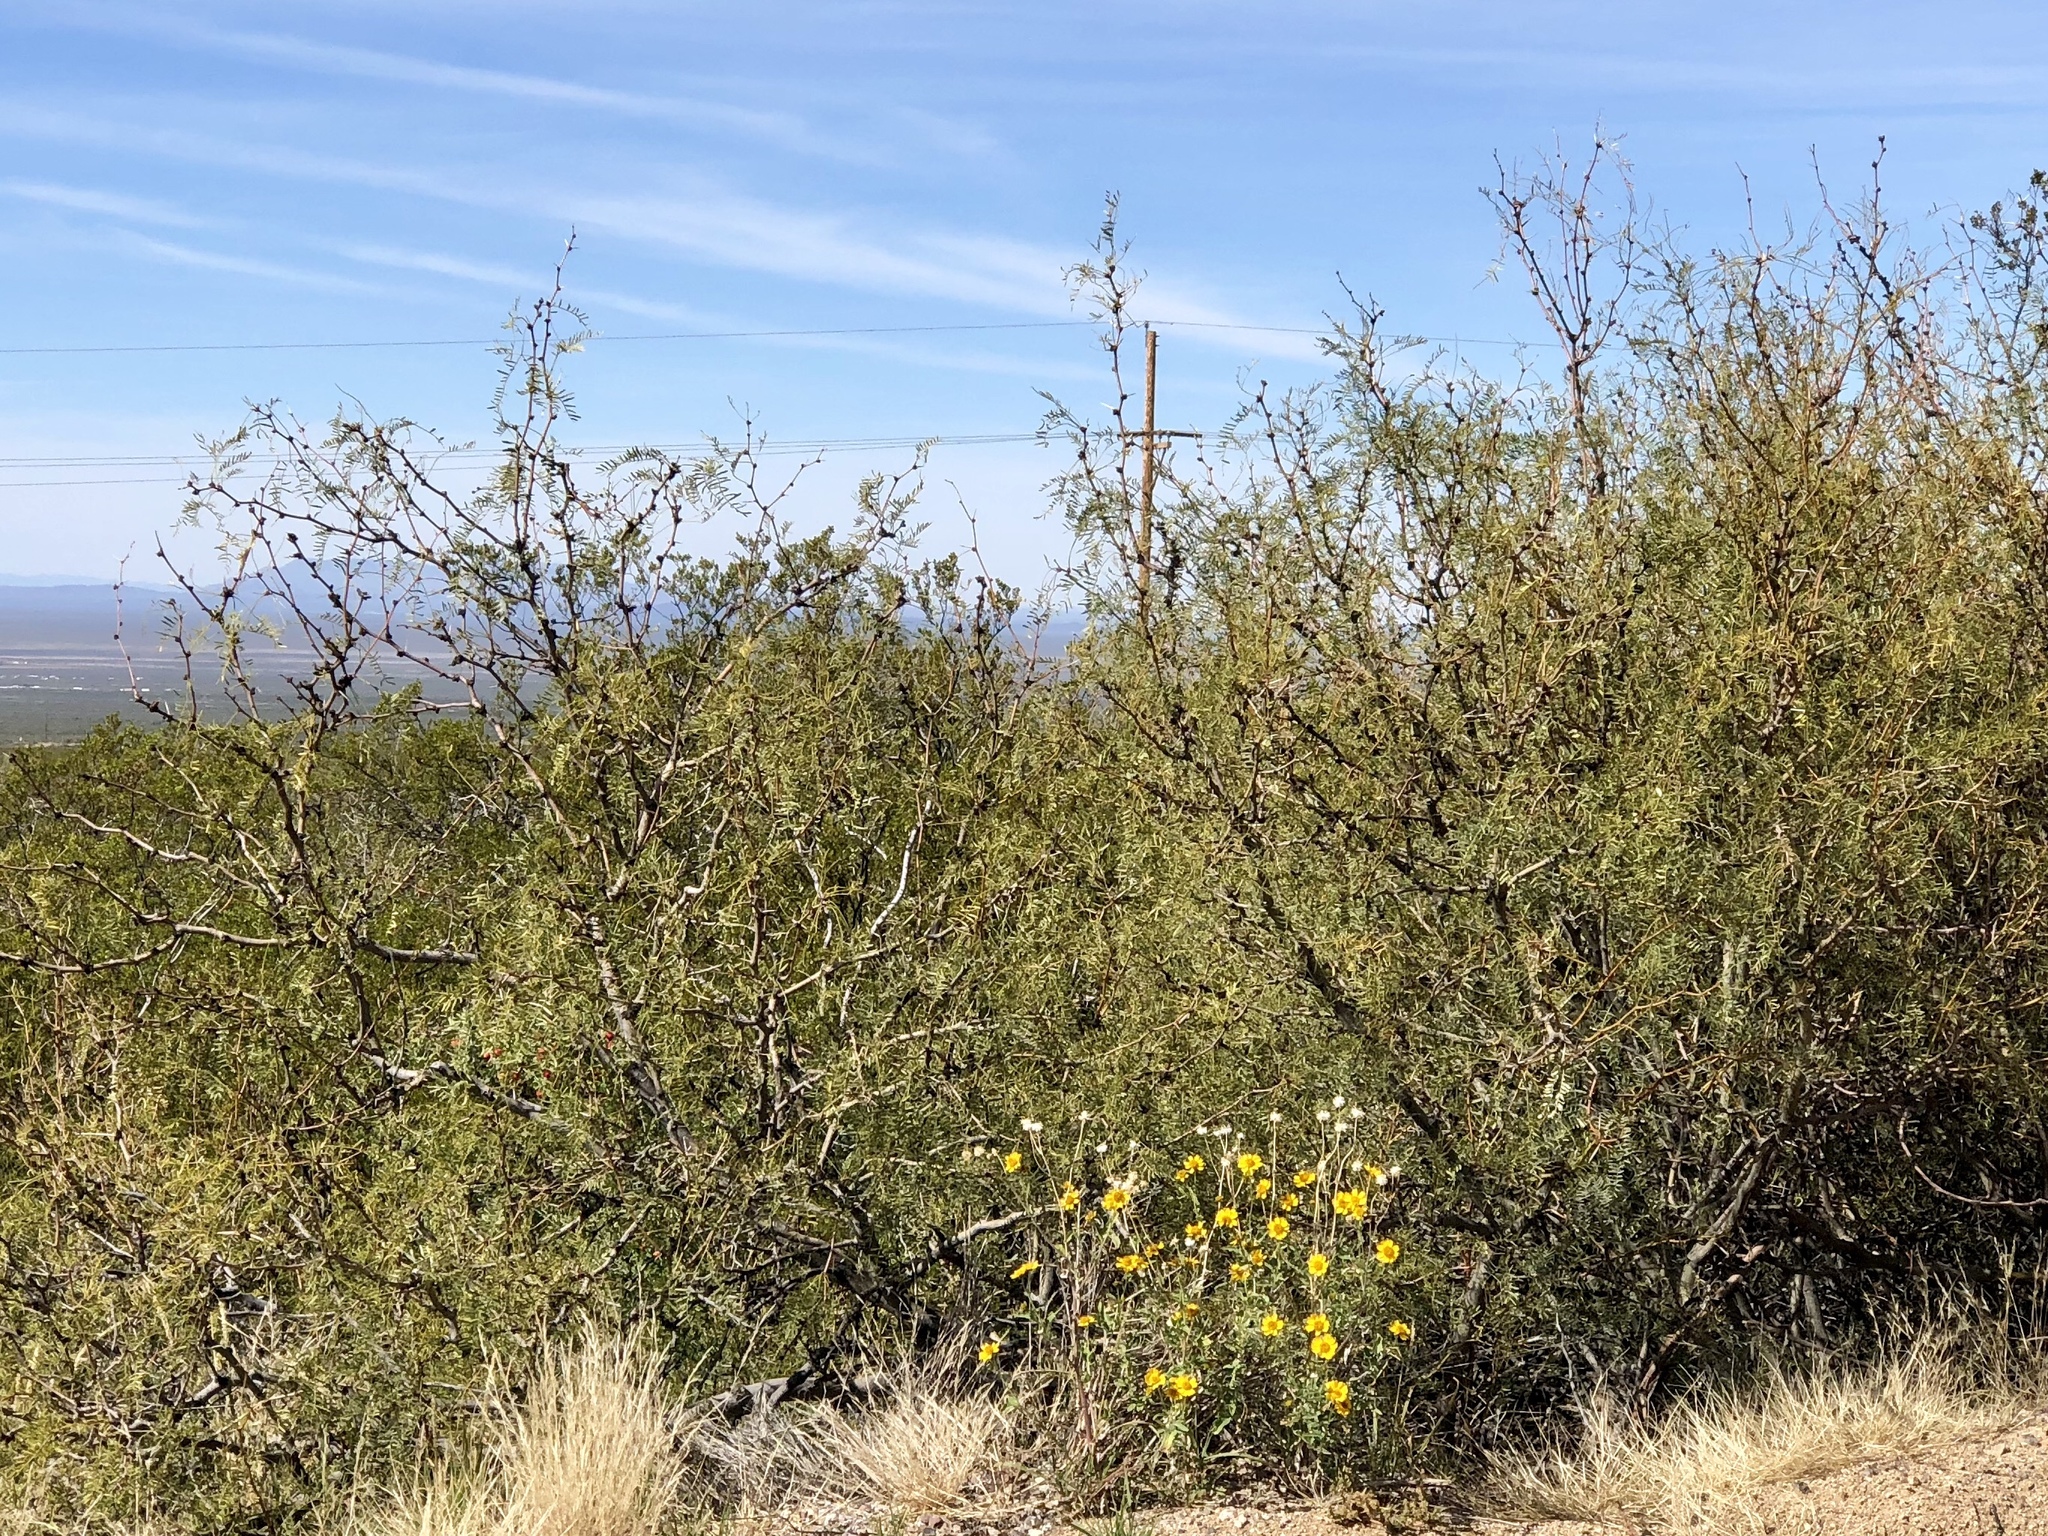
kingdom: Plantae
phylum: Tracheophyta
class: Magnoliopsida
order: Fabales
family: Fabaceae
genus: Prosopis
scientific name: Prosopis glandulosa
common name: Honey mesquite
